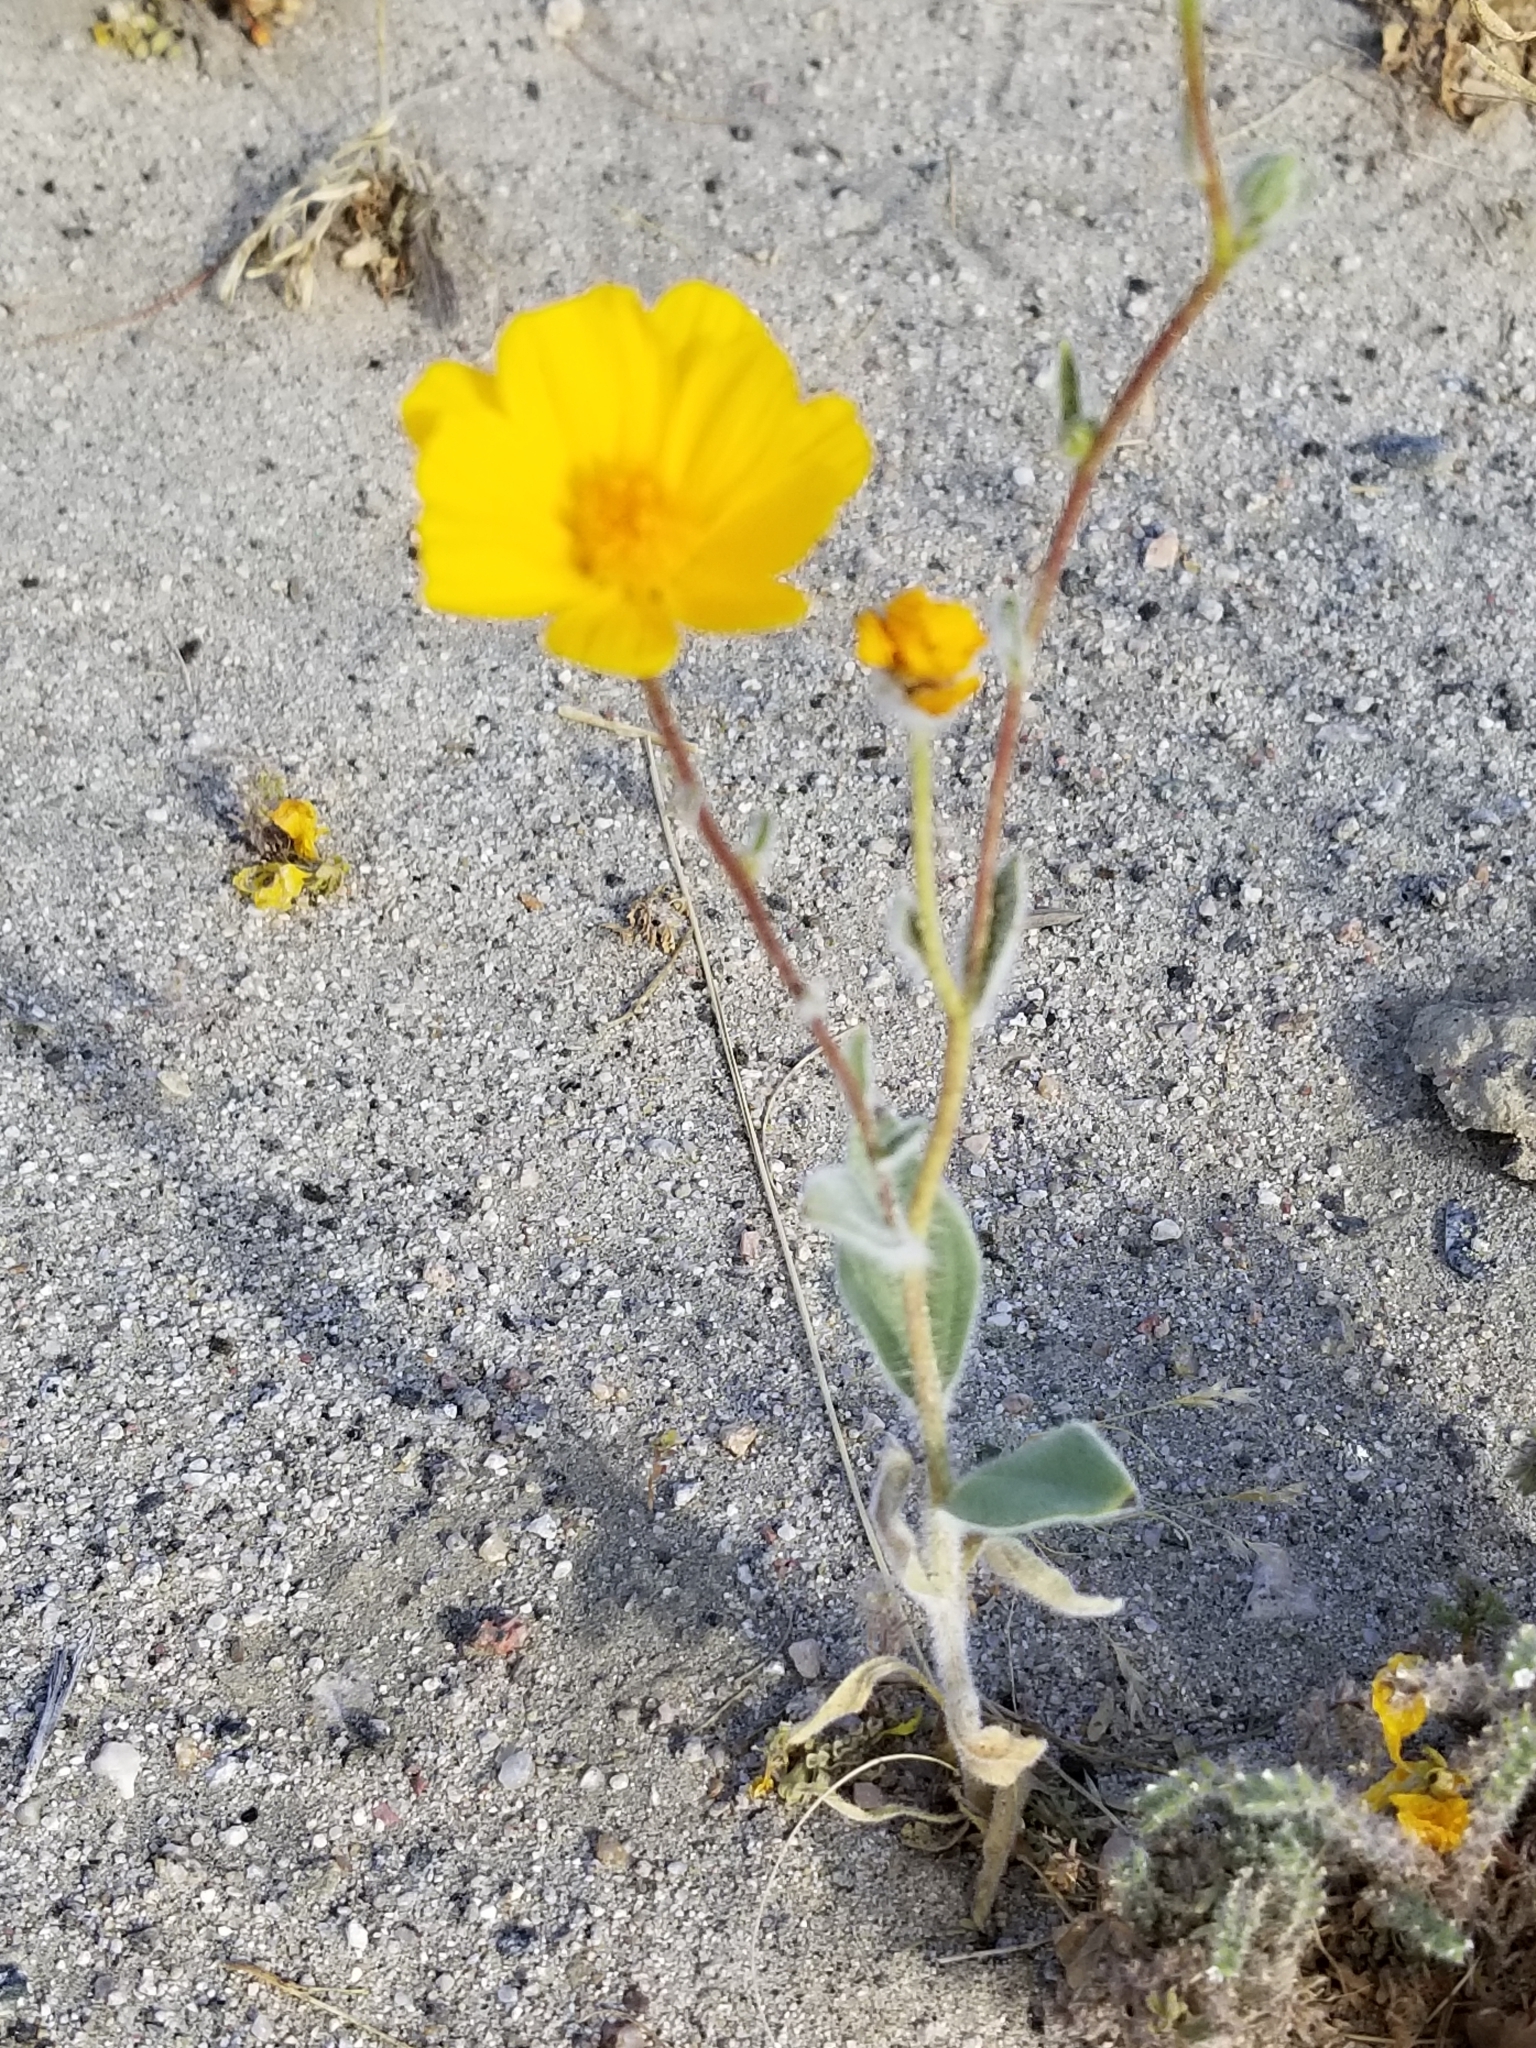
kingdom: Plantae
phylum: Tracheophyta
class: Magnoliopsida
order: Asterales
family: Asteraceae
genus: Geraea
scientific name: Geraea canescens
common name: Desert-gold
